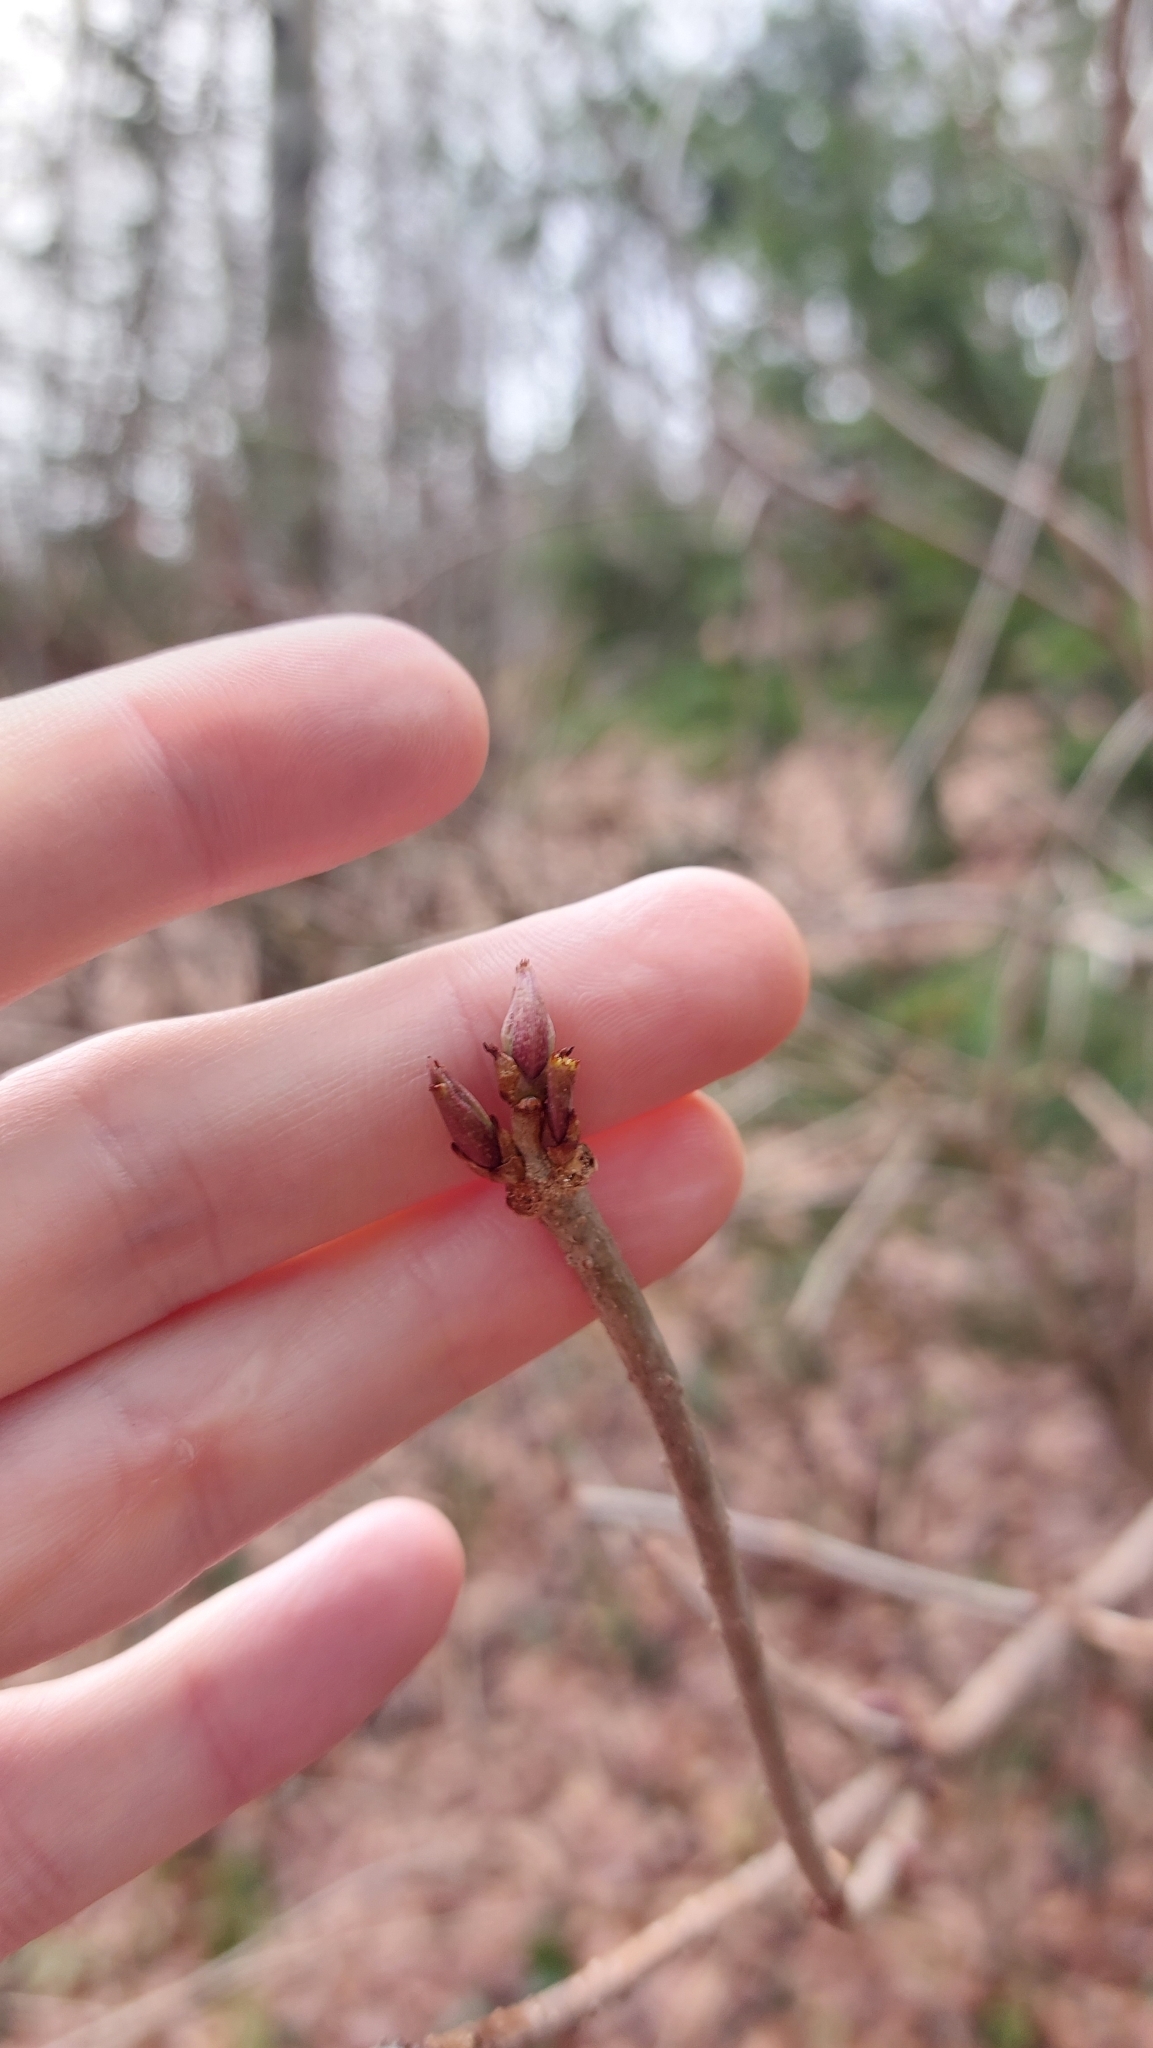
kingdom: Plantae
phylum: Tracheophyta
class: Magnoliopsida
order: Dipsacales
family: Viburnaceae
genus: Sambucus
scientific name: Sambucus nigra
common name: Elder
